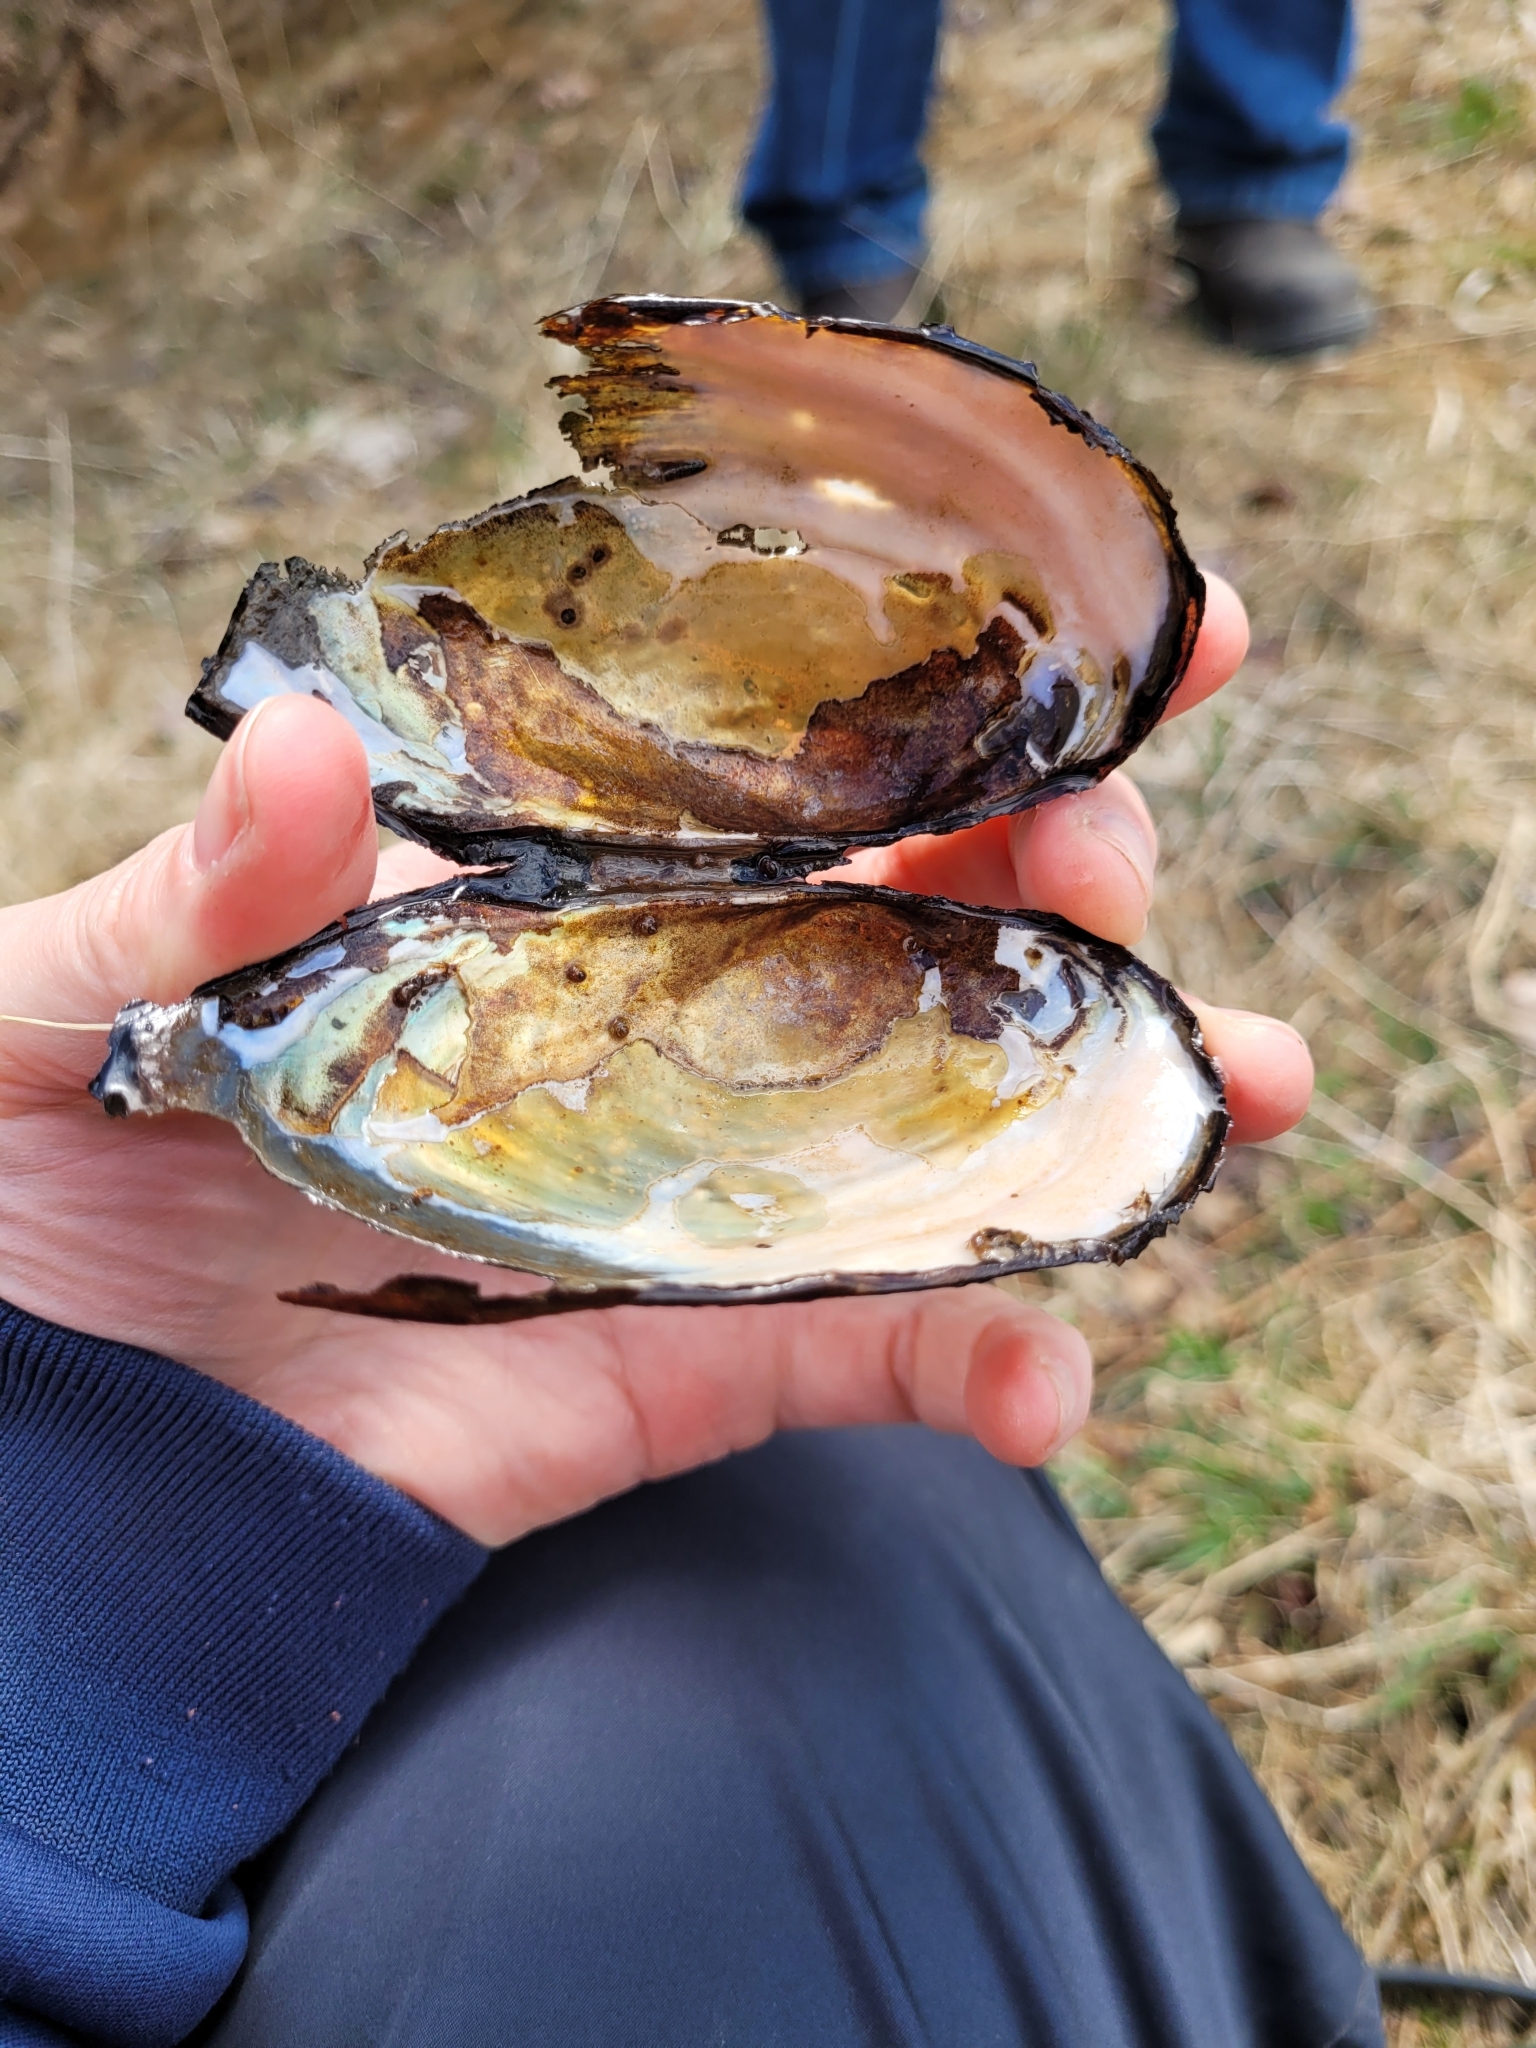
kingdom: Animalia
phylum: Mollusca
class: Bivalvia
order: Unionida
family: Unionidae
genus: Utterbackiana
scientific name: Utterbackiana implicata
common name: Alewife floater
